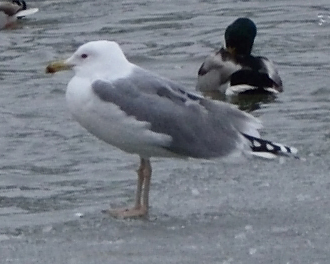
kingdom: Animalia
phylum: Chordata
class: Aves
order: Charadriiformes
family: Laridae
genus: Larus
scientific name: Larus cachinnans
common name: Caspian gull
